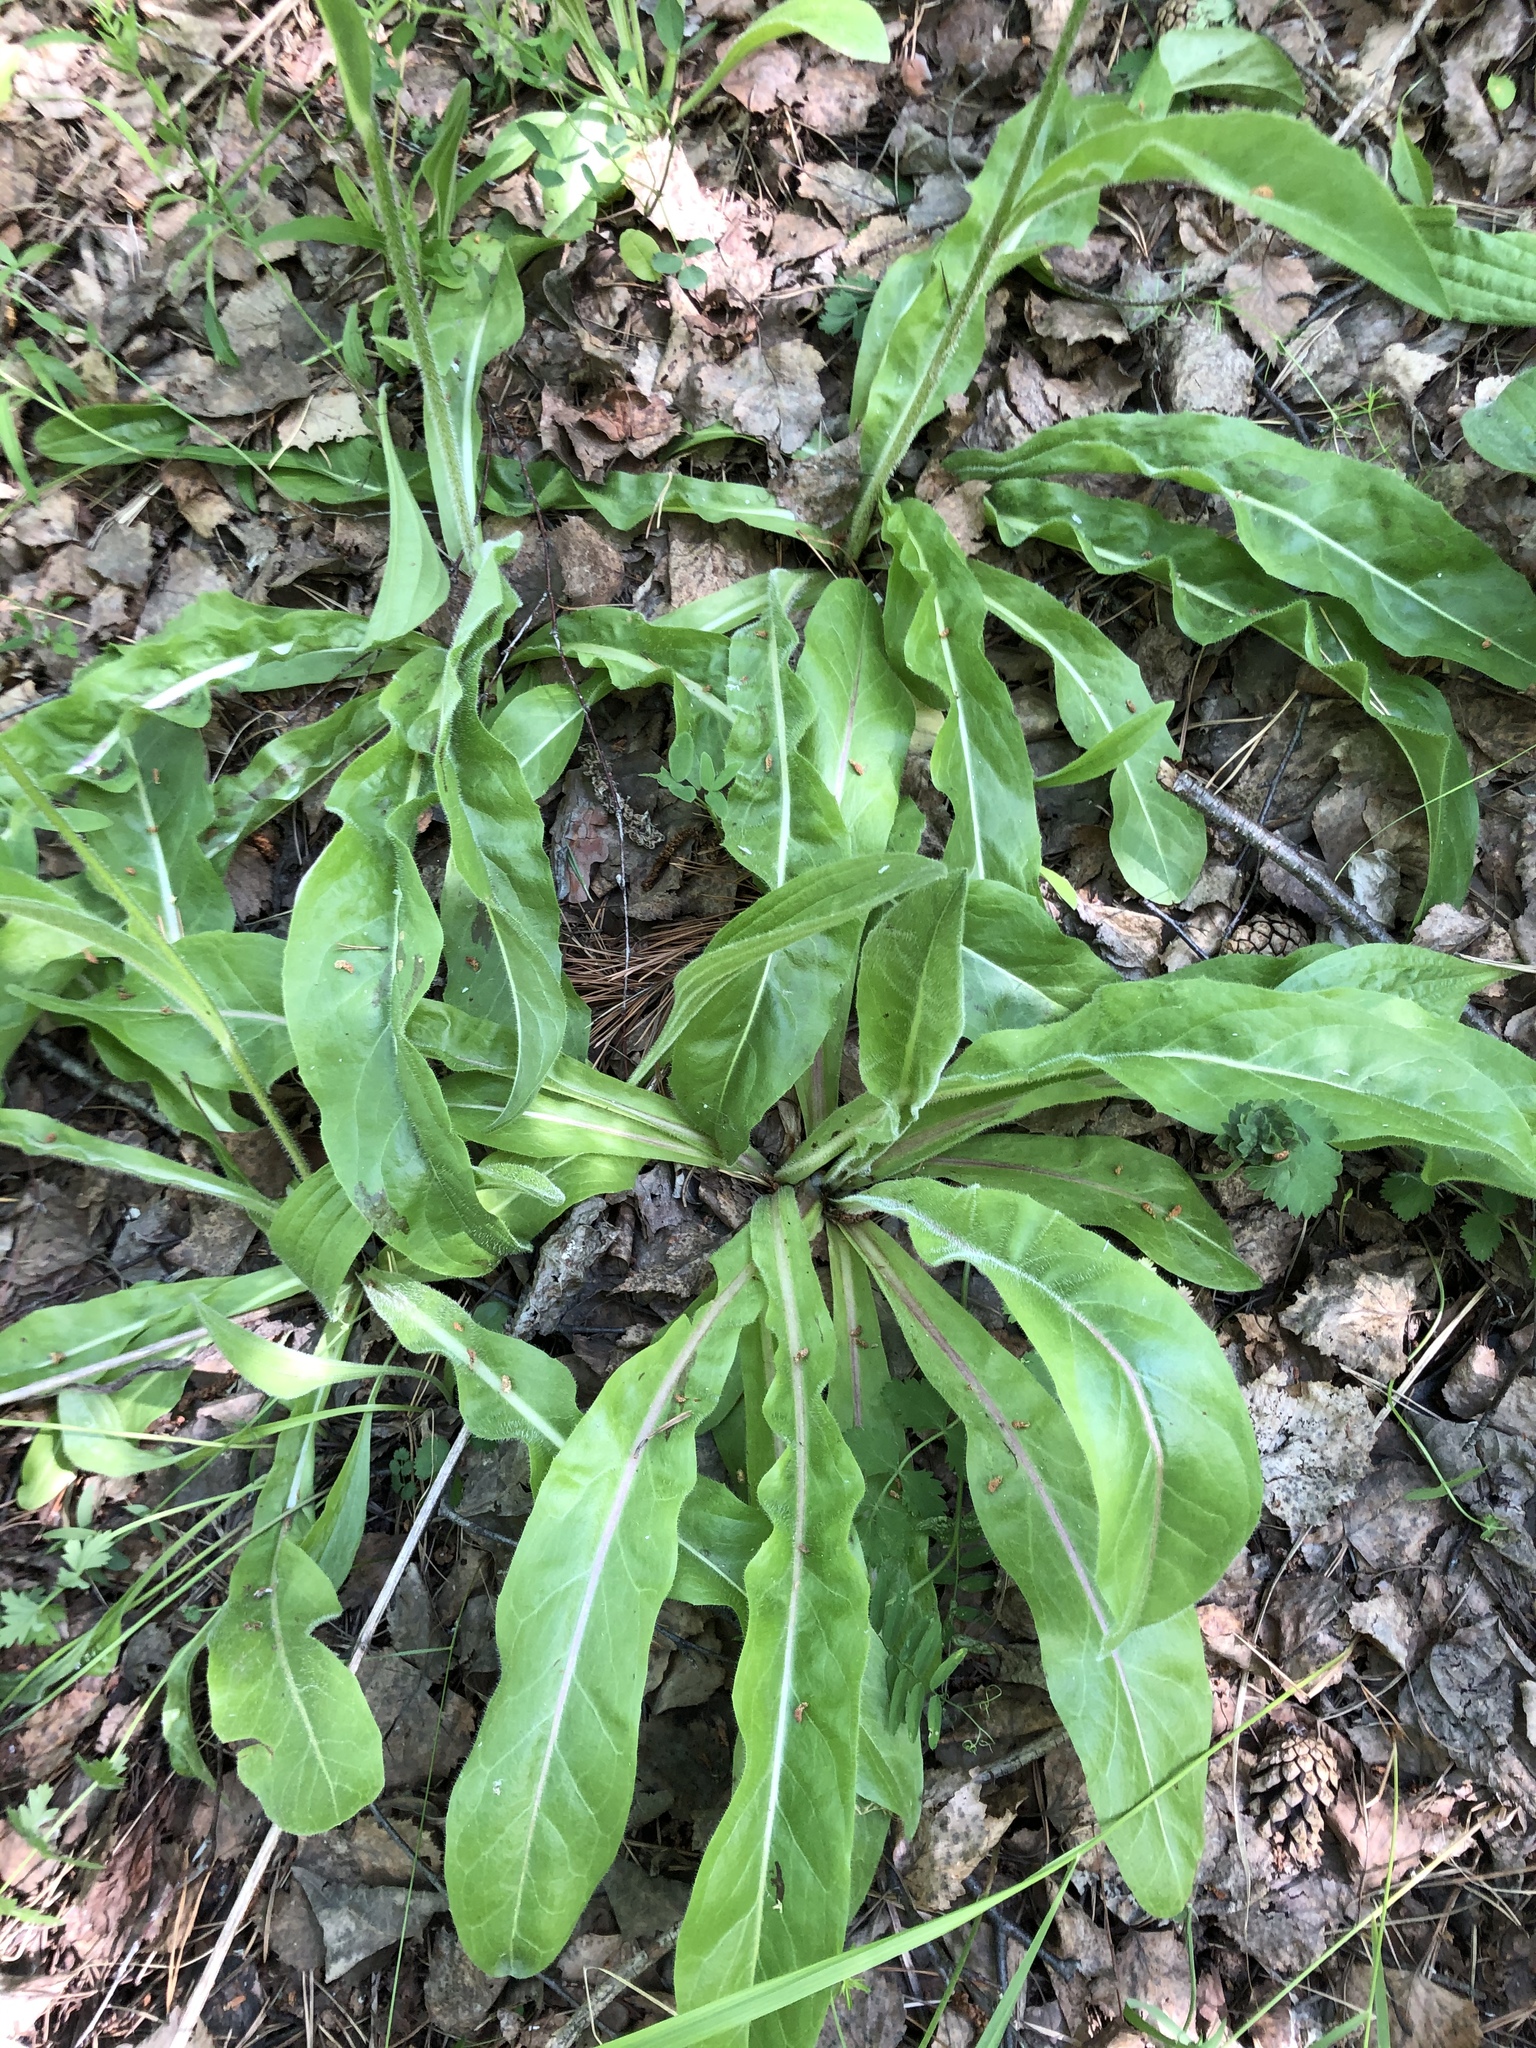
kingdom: Plantae
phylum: Tracheophyta
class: Magnoliopsida
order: Asterales
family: Asteraceae
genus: Trommsdorffia
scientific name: Trommsdorffia maculata
